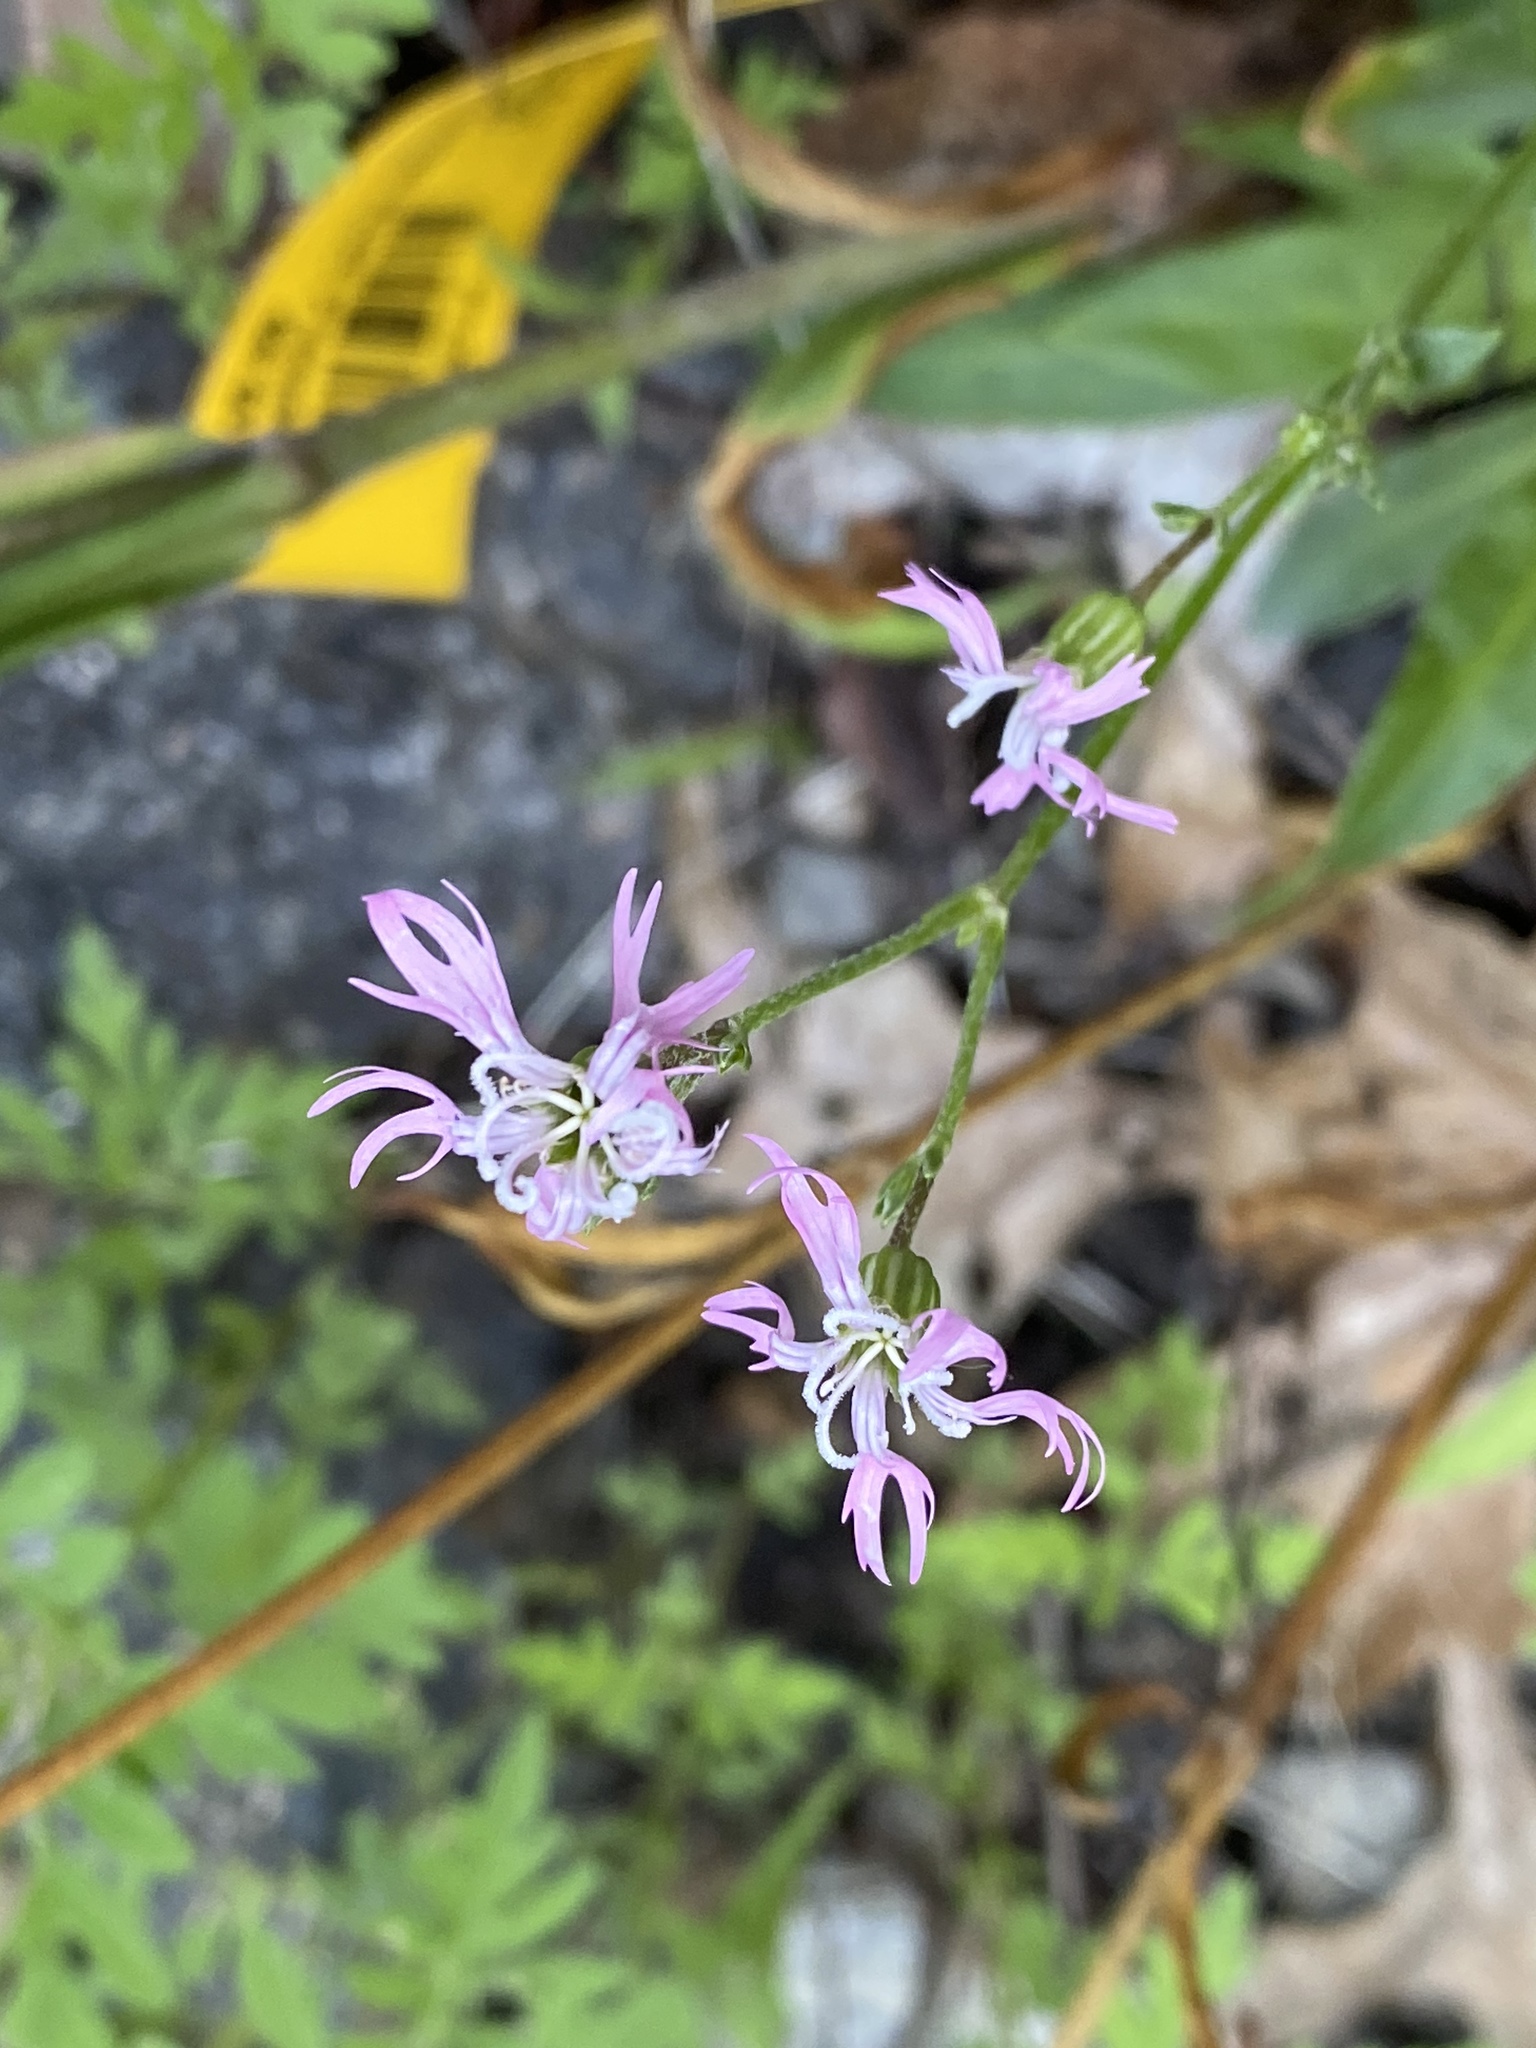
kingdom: Plantae
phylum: Tracheophyta
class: Magnoliopsida
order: Caryophyllales
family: Caryophyllaceae
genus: Silene
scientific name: Silene flos-cuculi
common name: Ragged-robin
